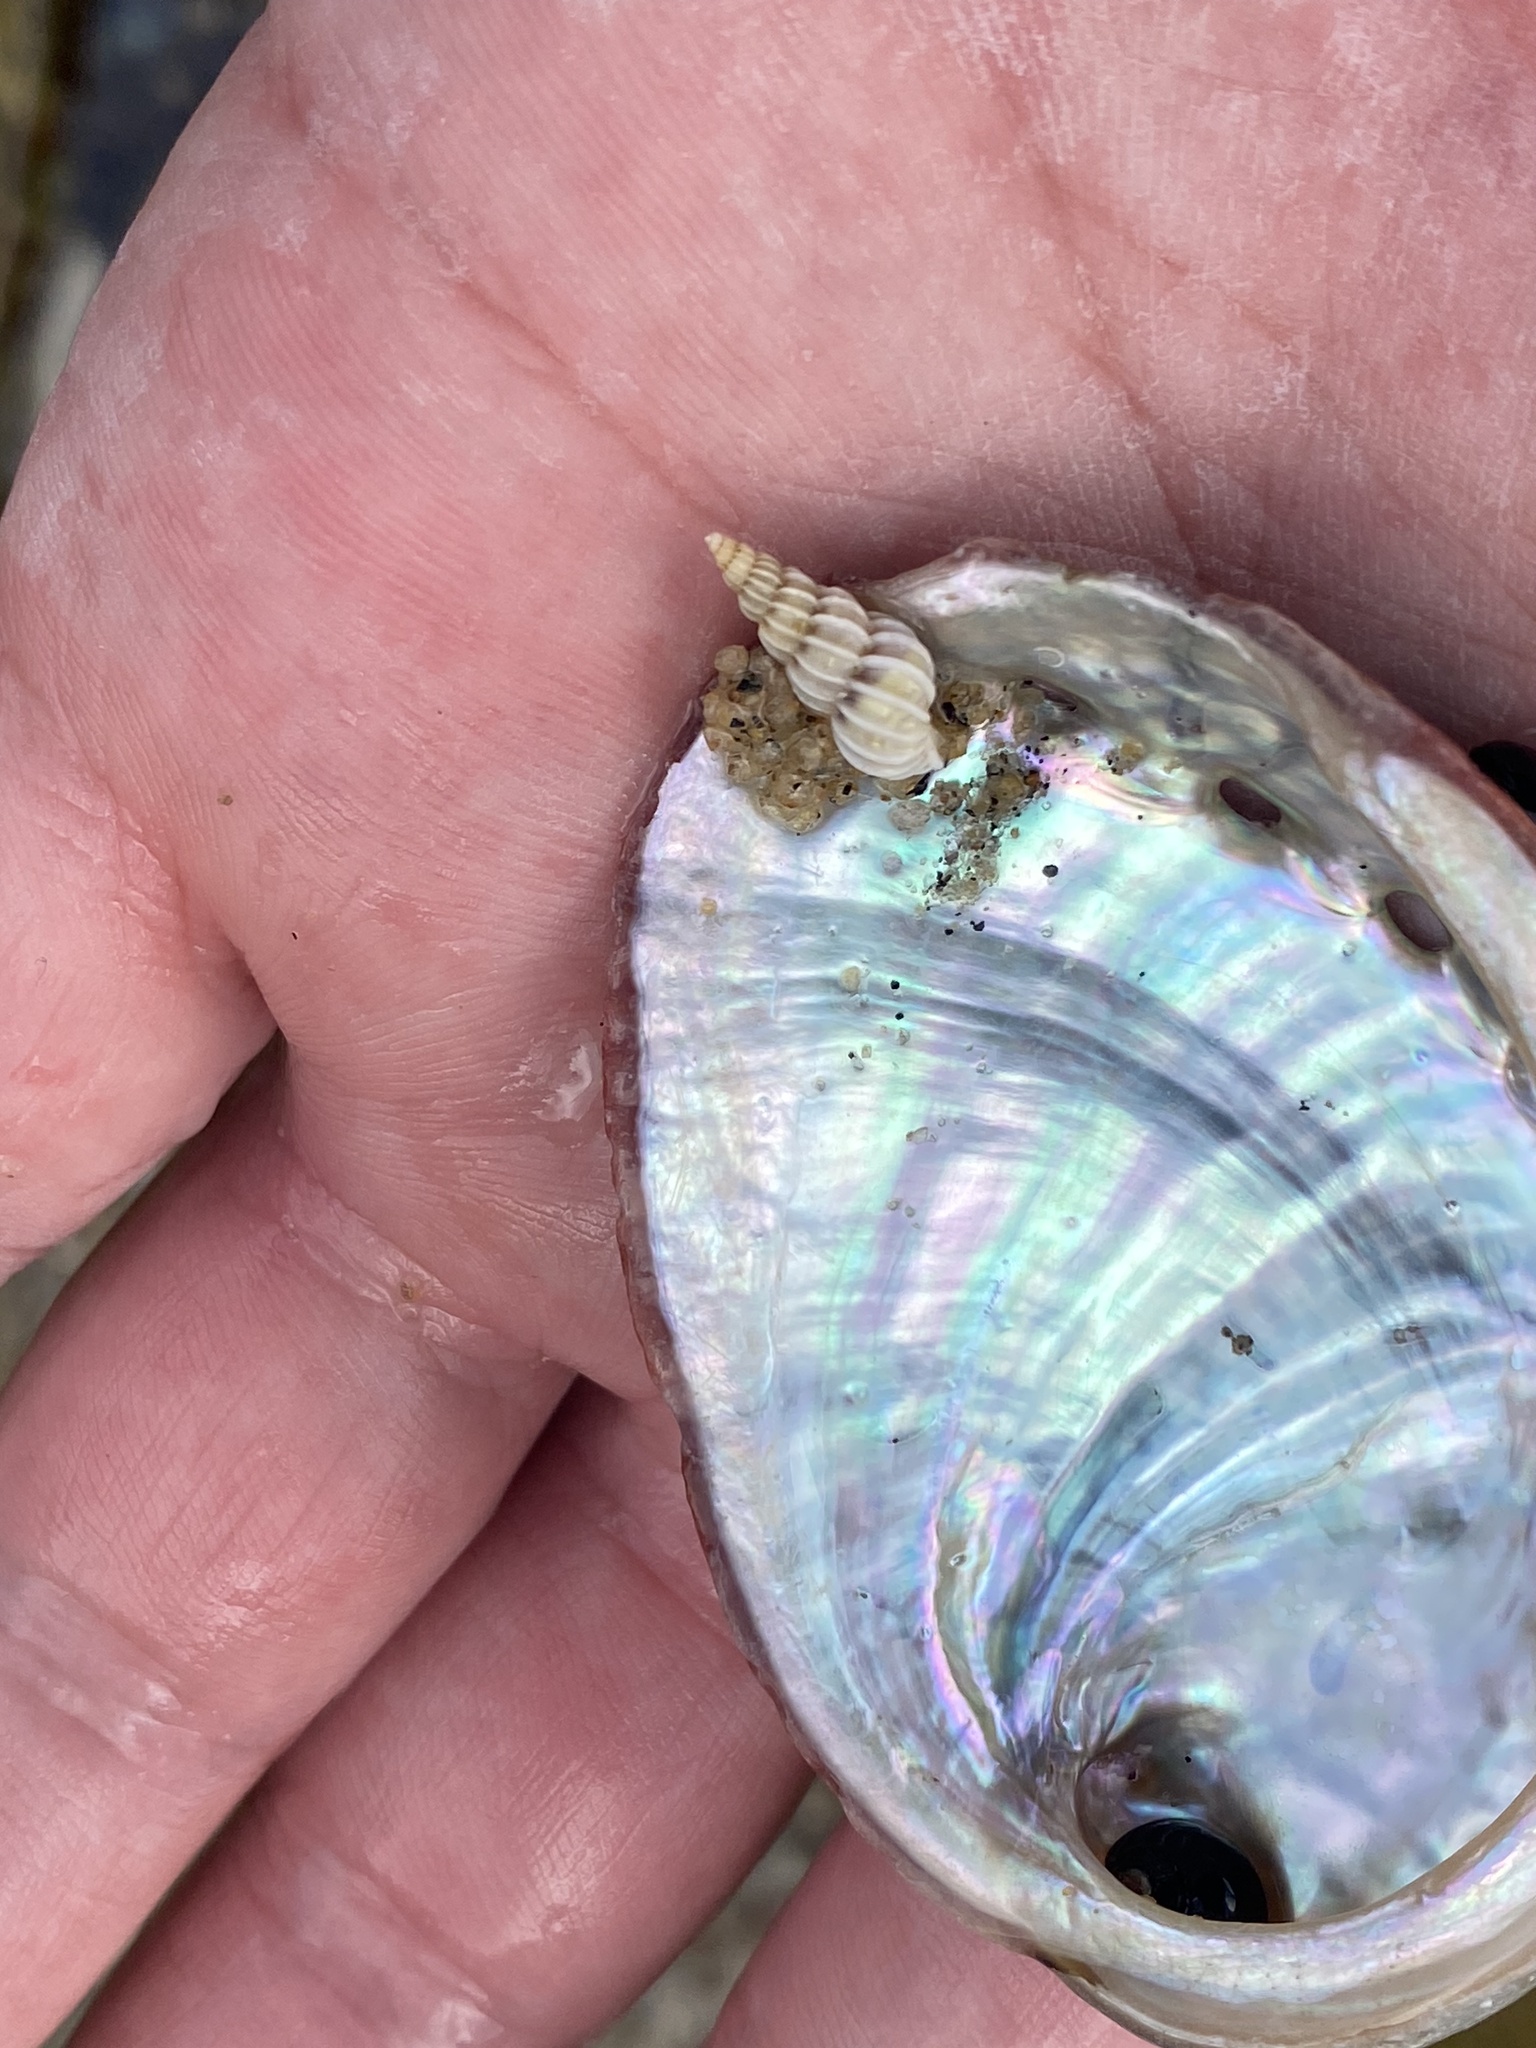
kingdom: Animalia
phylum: Mollusca
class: Gastropoda
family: Epitoniidae
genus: Epitonium
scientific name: Epitonium tinctum
